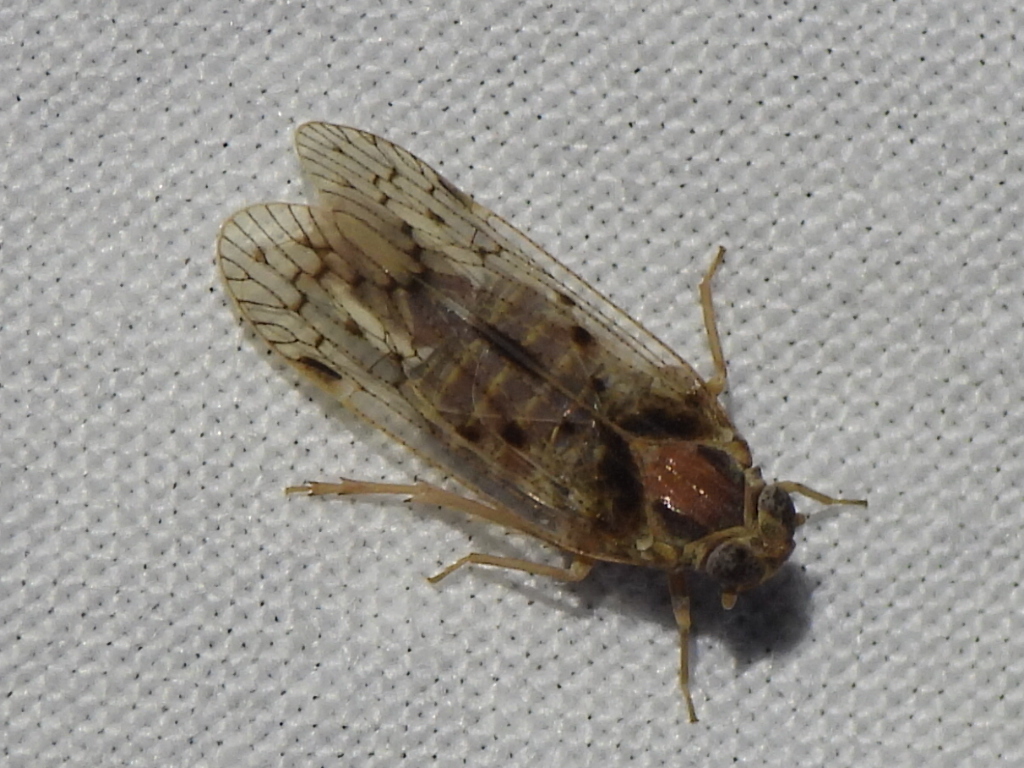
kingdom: Animalia
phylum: Arthropoda
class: Insecta
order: Hemiptera
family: Cixiidae
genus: Melanoliarus
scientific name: Melanoliarus aridus
